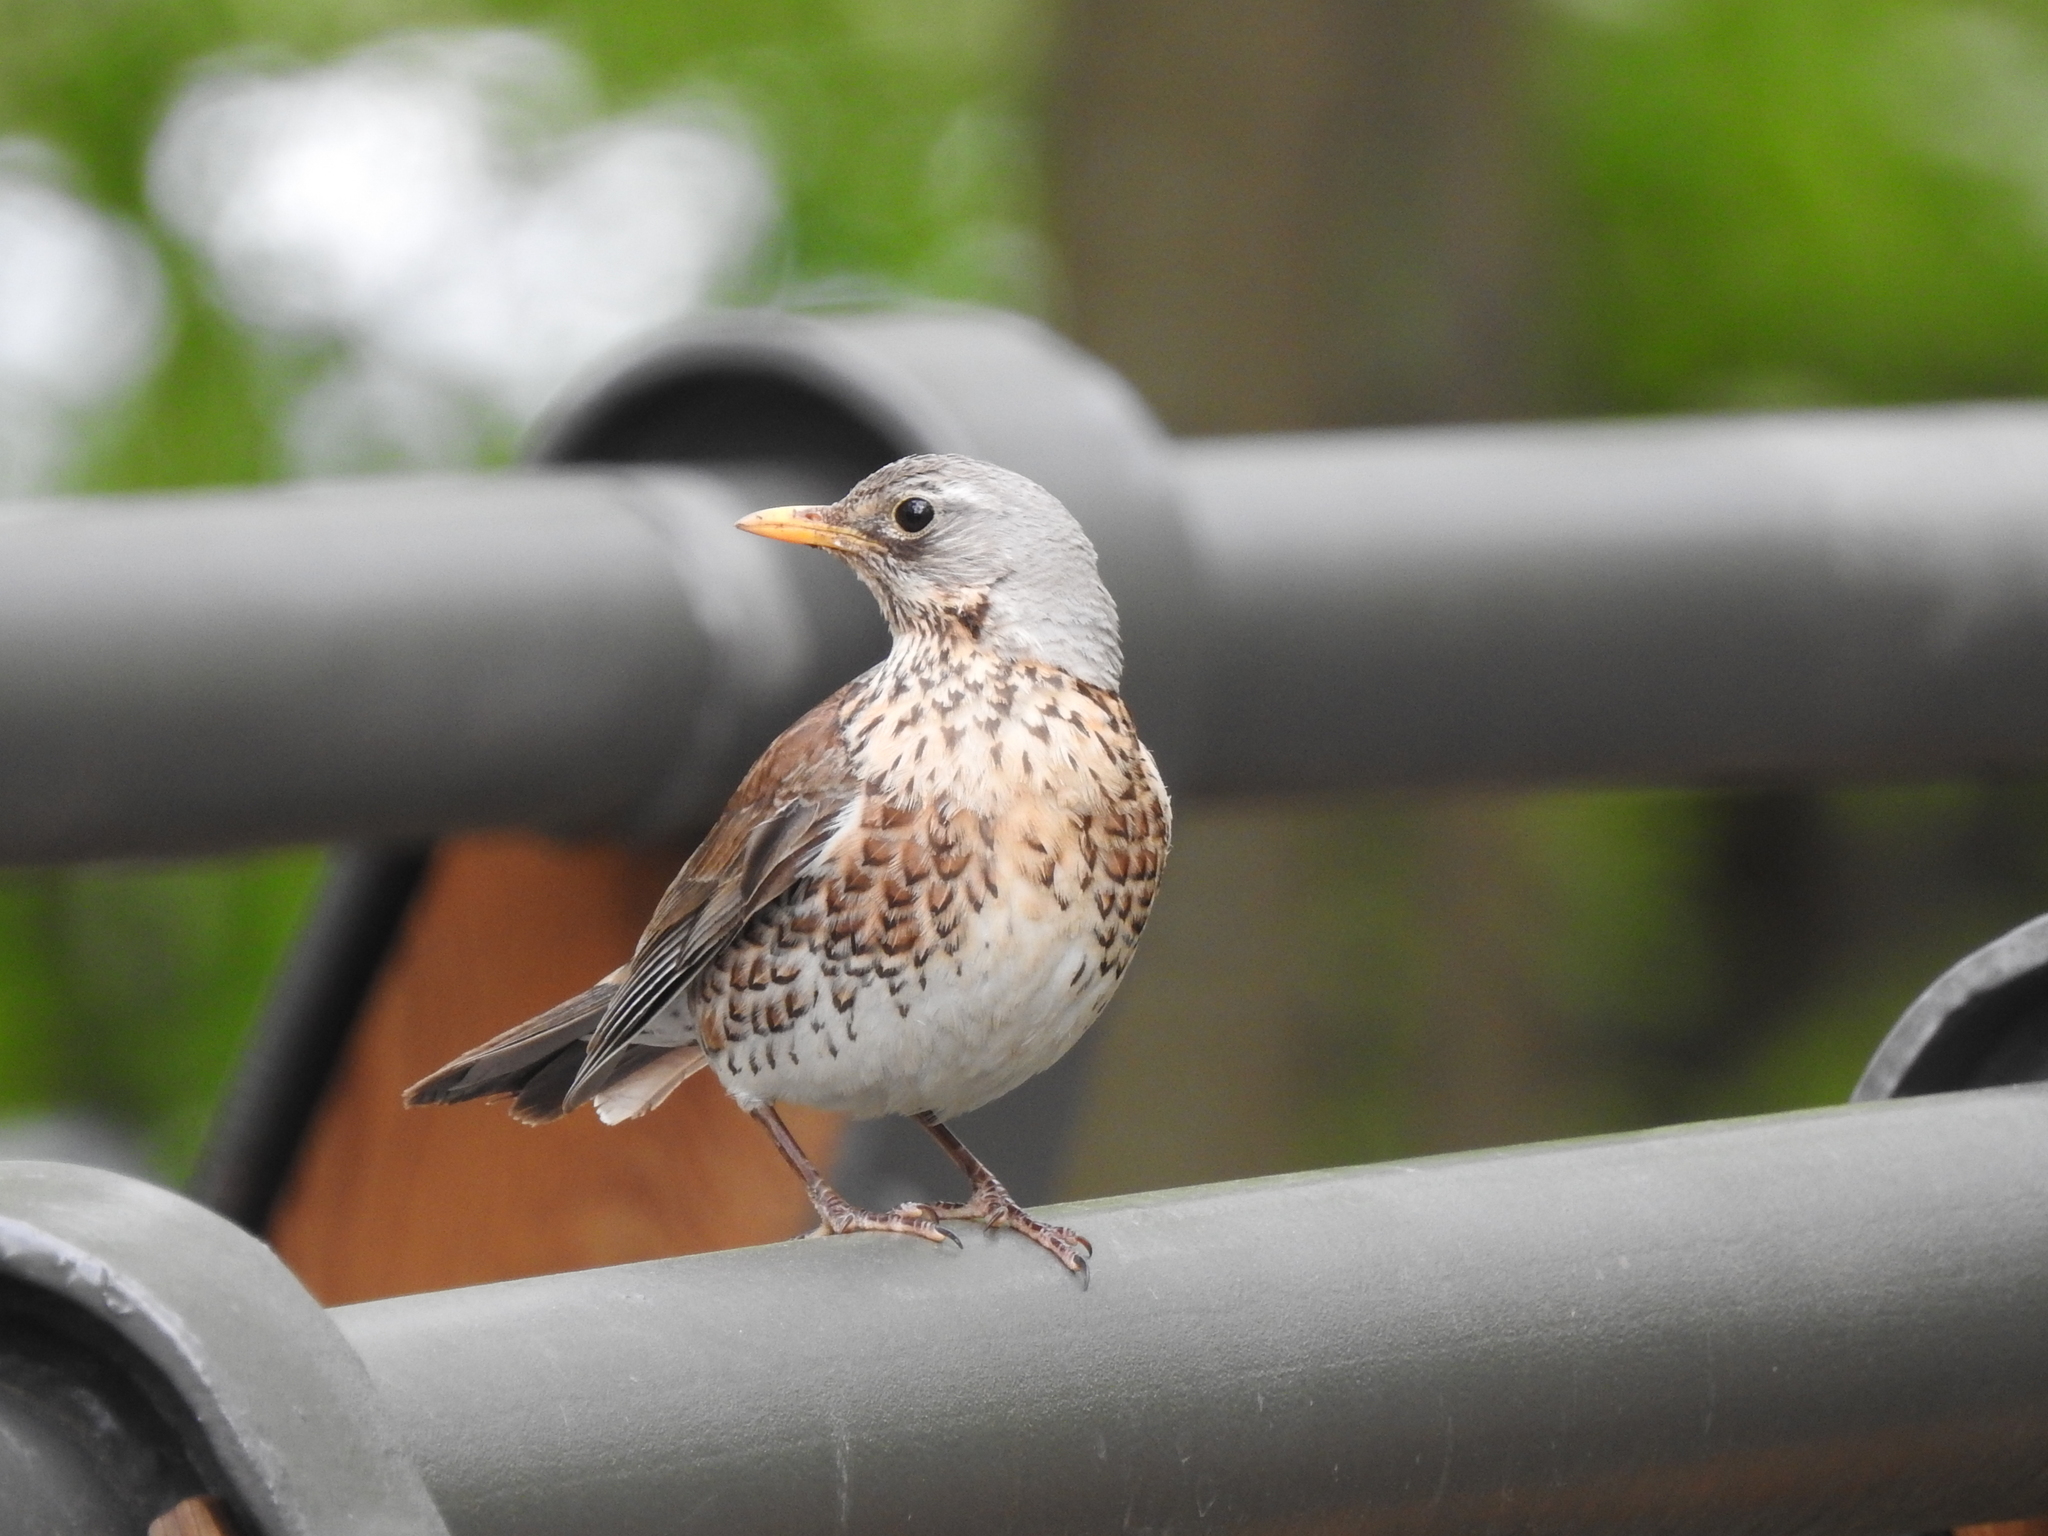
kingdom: Animalia
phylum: Chordata
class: Aves
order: Passeriformes
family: Turdidae
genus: Turdus
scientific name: Turdus pilaris
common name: Fieldfare
